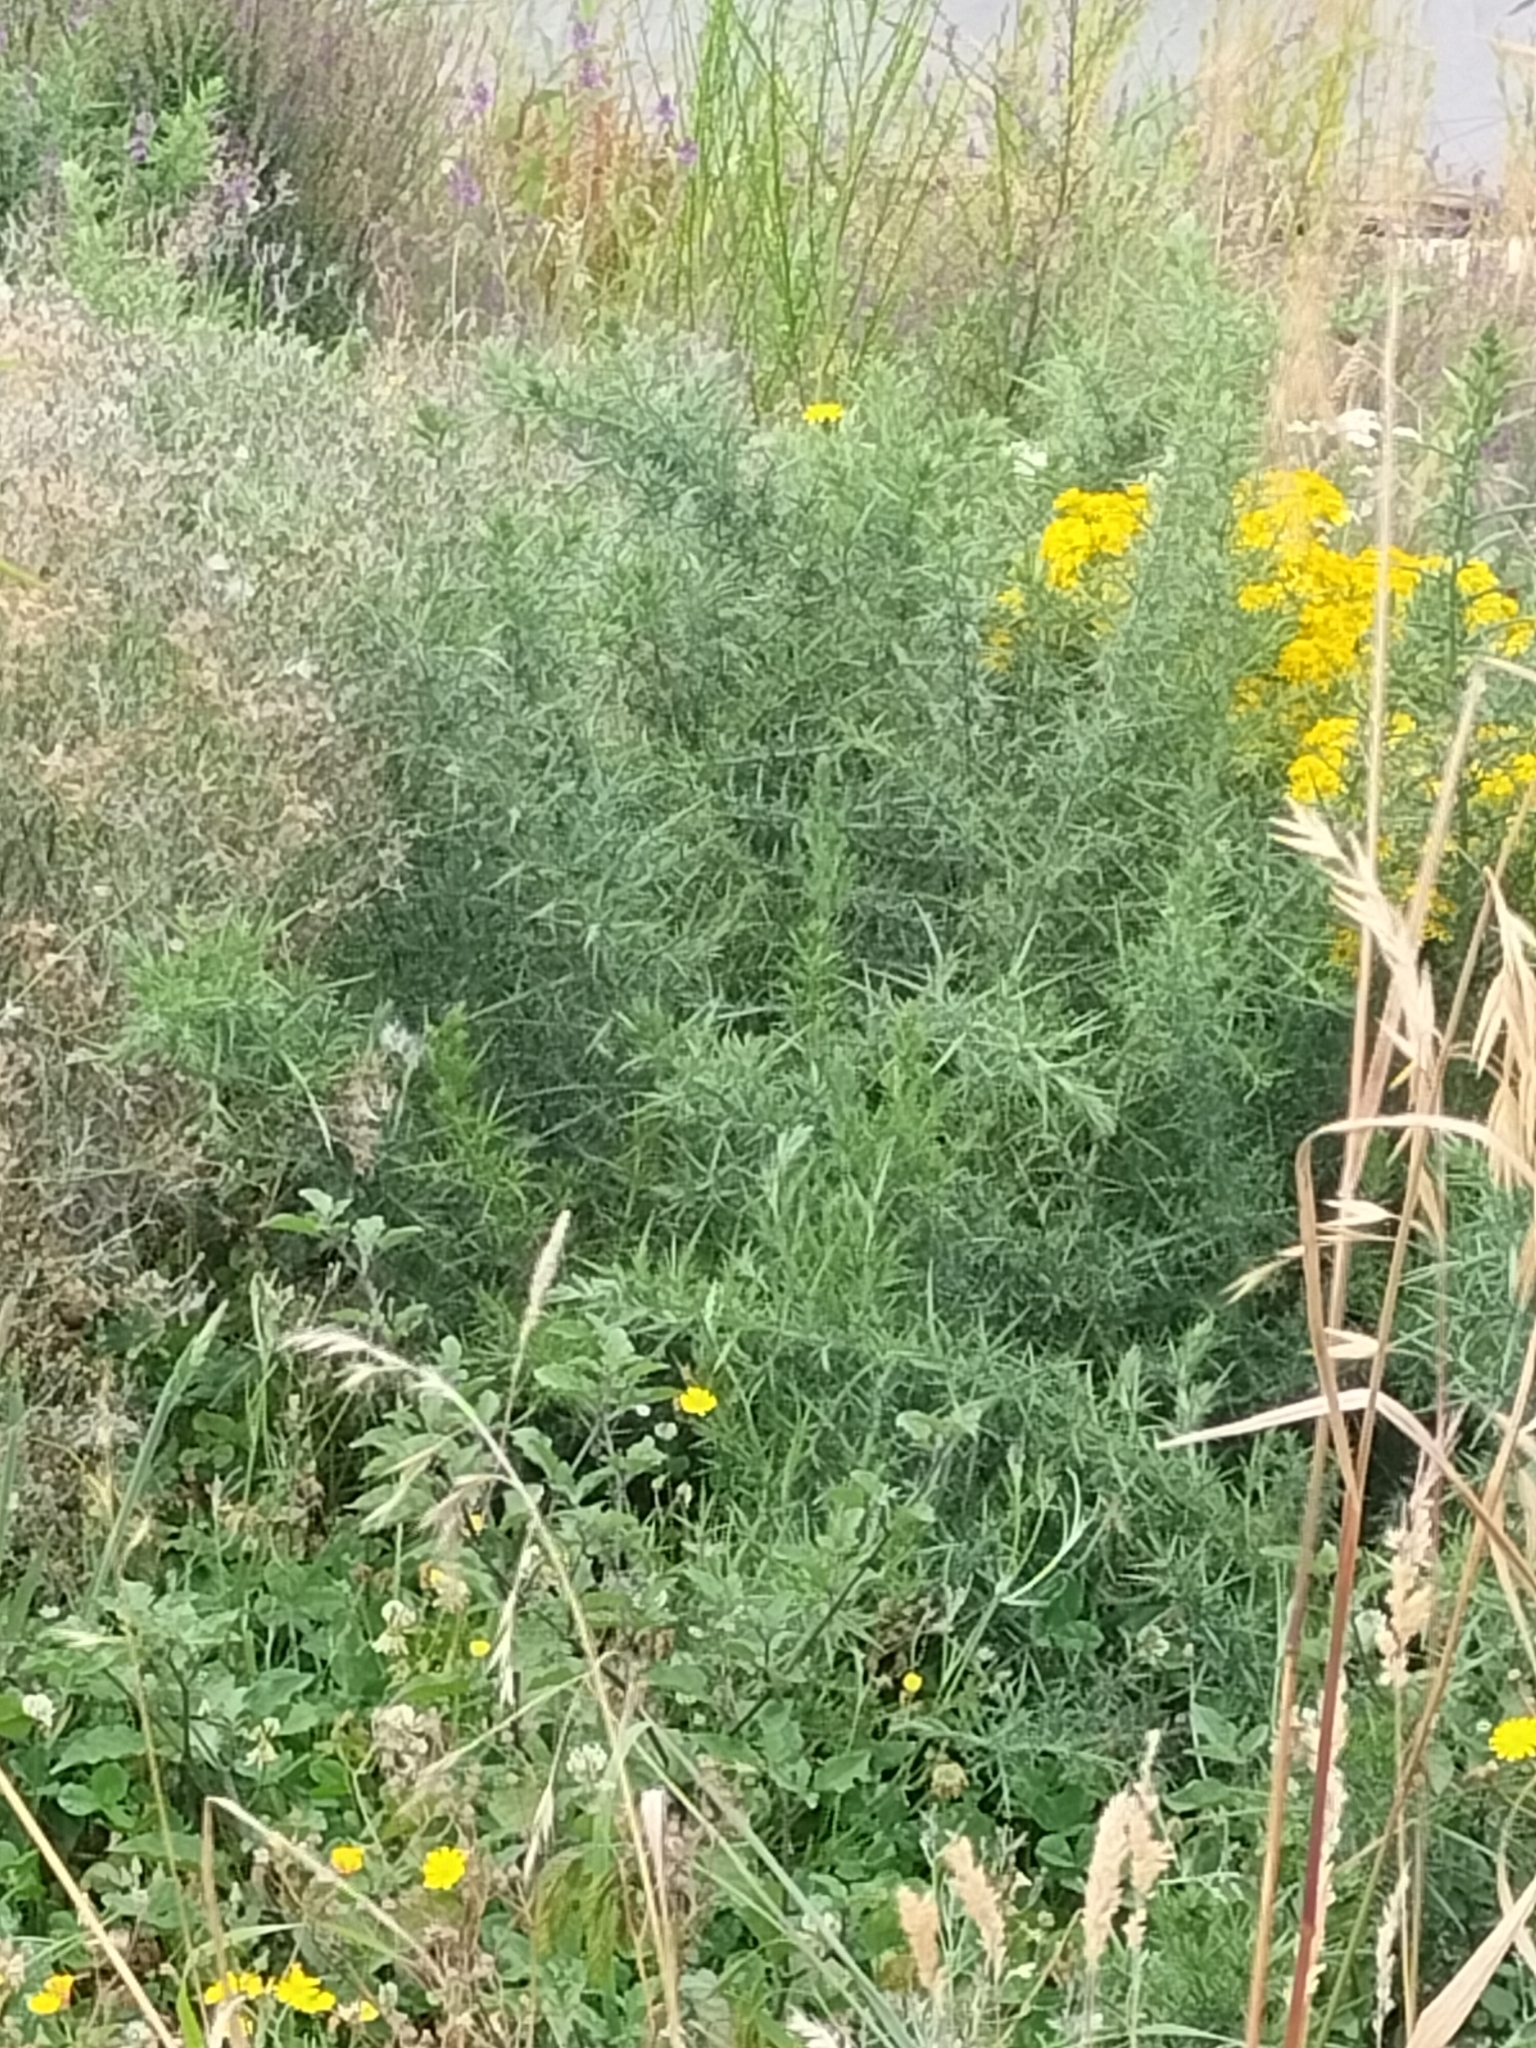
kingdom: Plantae
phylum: Tracheophyta
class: Magnoliopsida
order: Fabales
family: Fabaceae
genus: Ulex
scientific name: Ulex europaeus
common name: Common gorse
